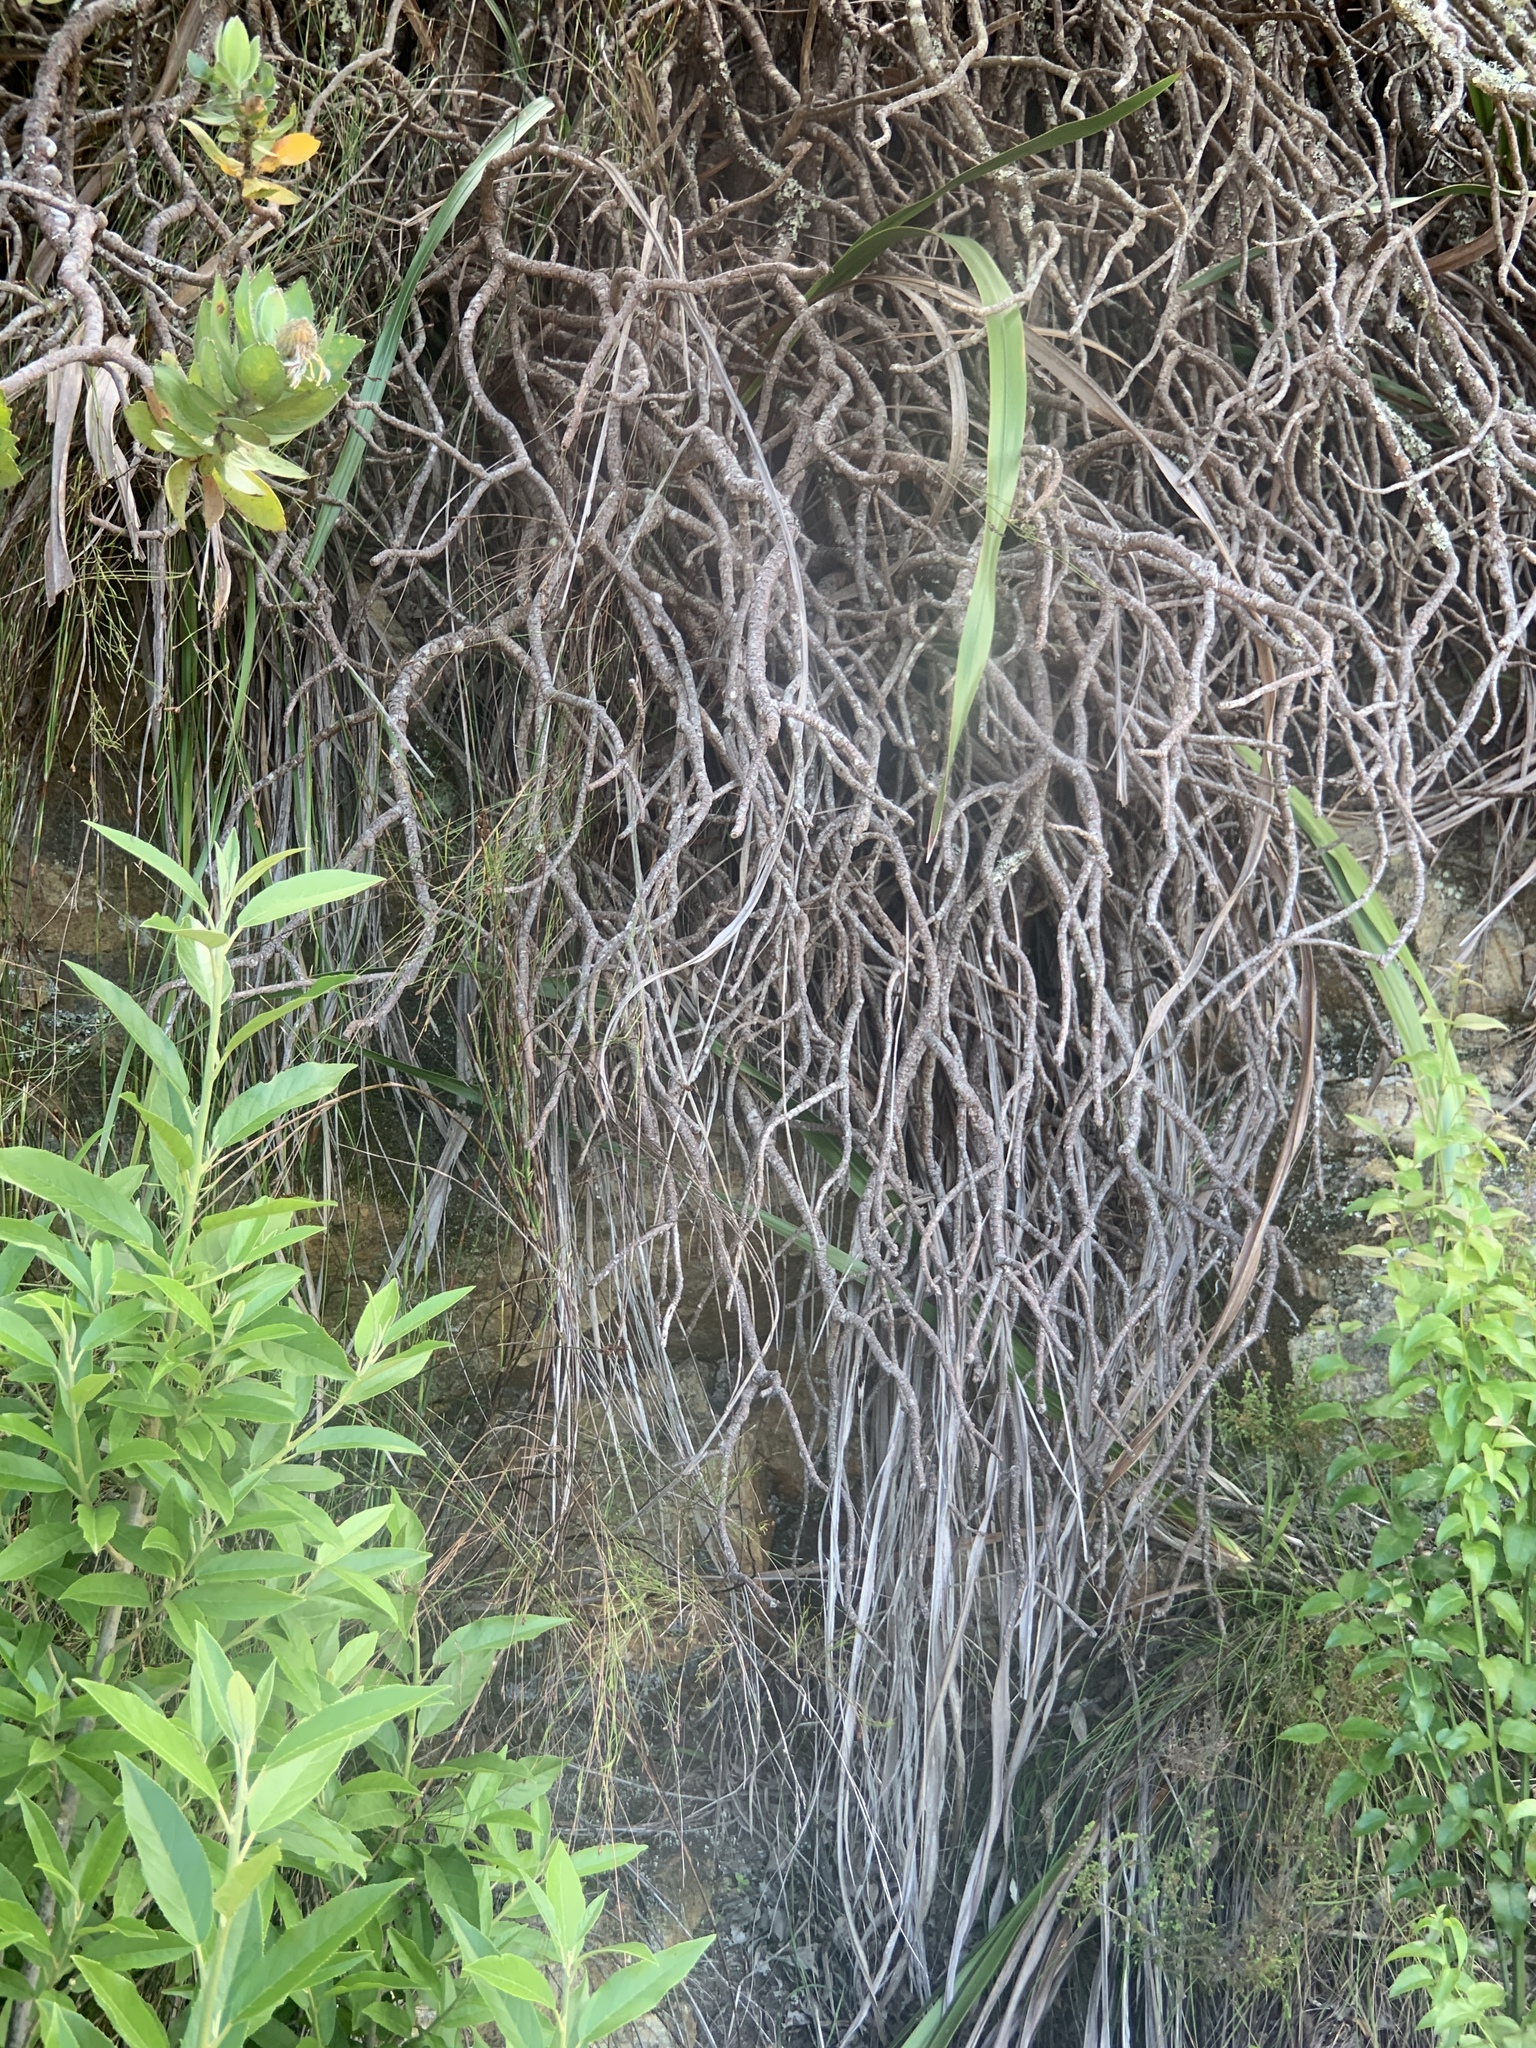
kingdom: Plantae
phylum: Tracheophyta
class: Magnoliopsida
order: Proteales
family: Proteaceae
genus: Leucospermum
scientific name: Leucospermum conocarpodendron
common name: Tree pincushion
